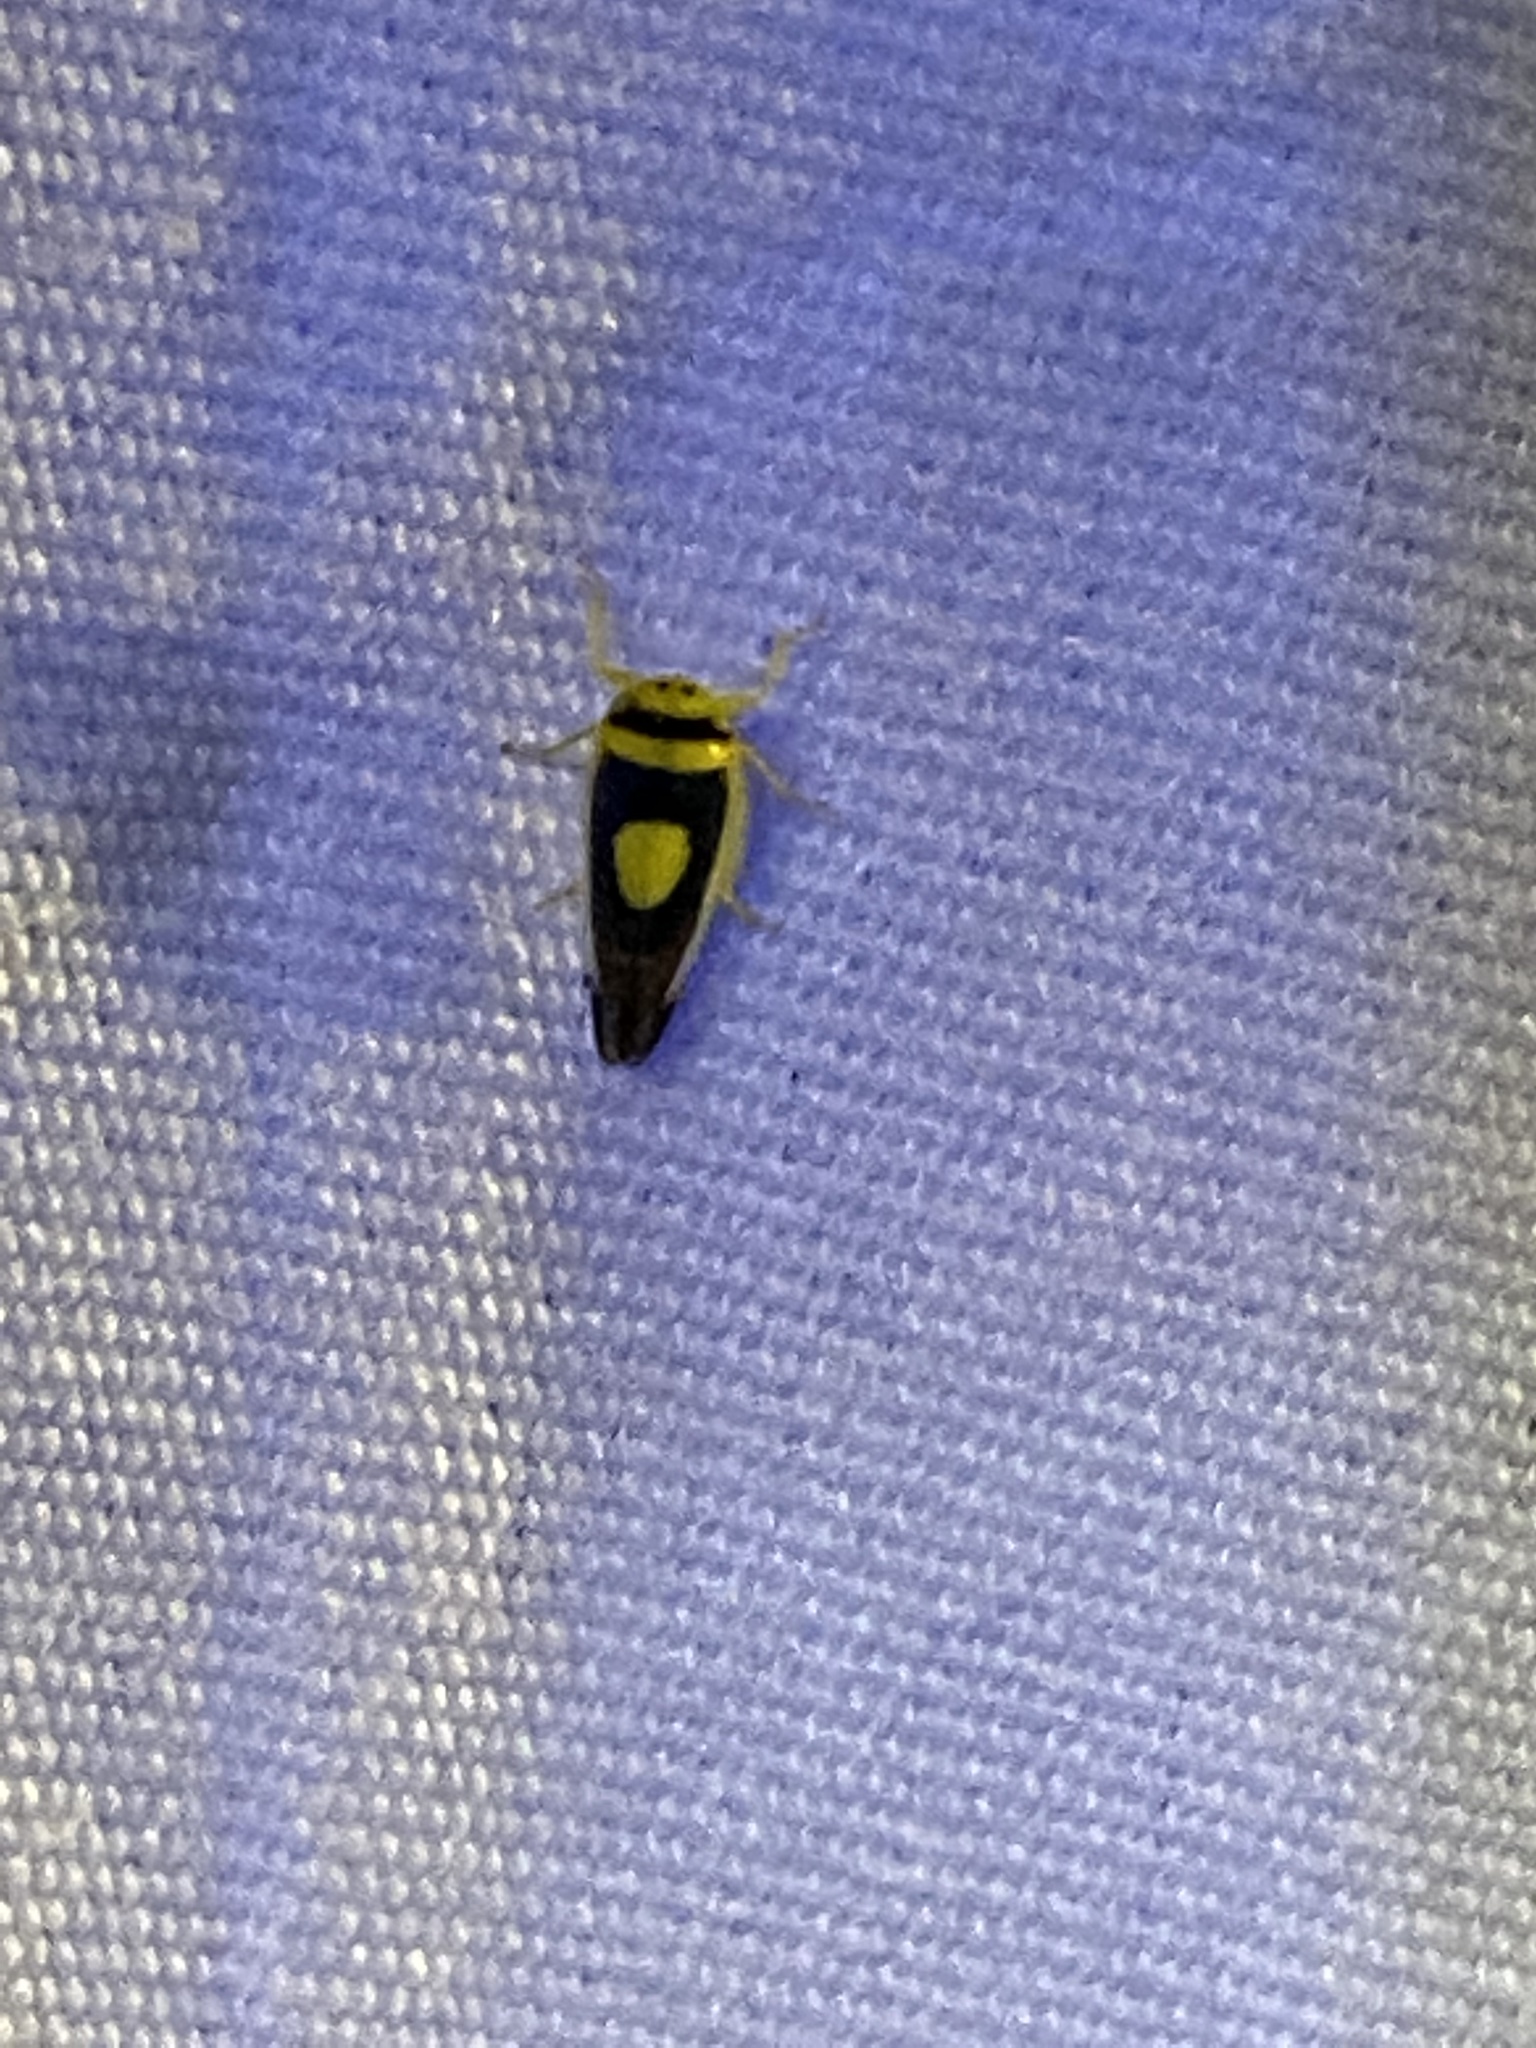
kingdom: Animalia
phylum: Arthropoda
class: Insecta
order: Hemiptera
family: Cicadellidae
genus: Colladonus
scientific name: Colladonus clitellarius
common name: The saddleback leafhopper
